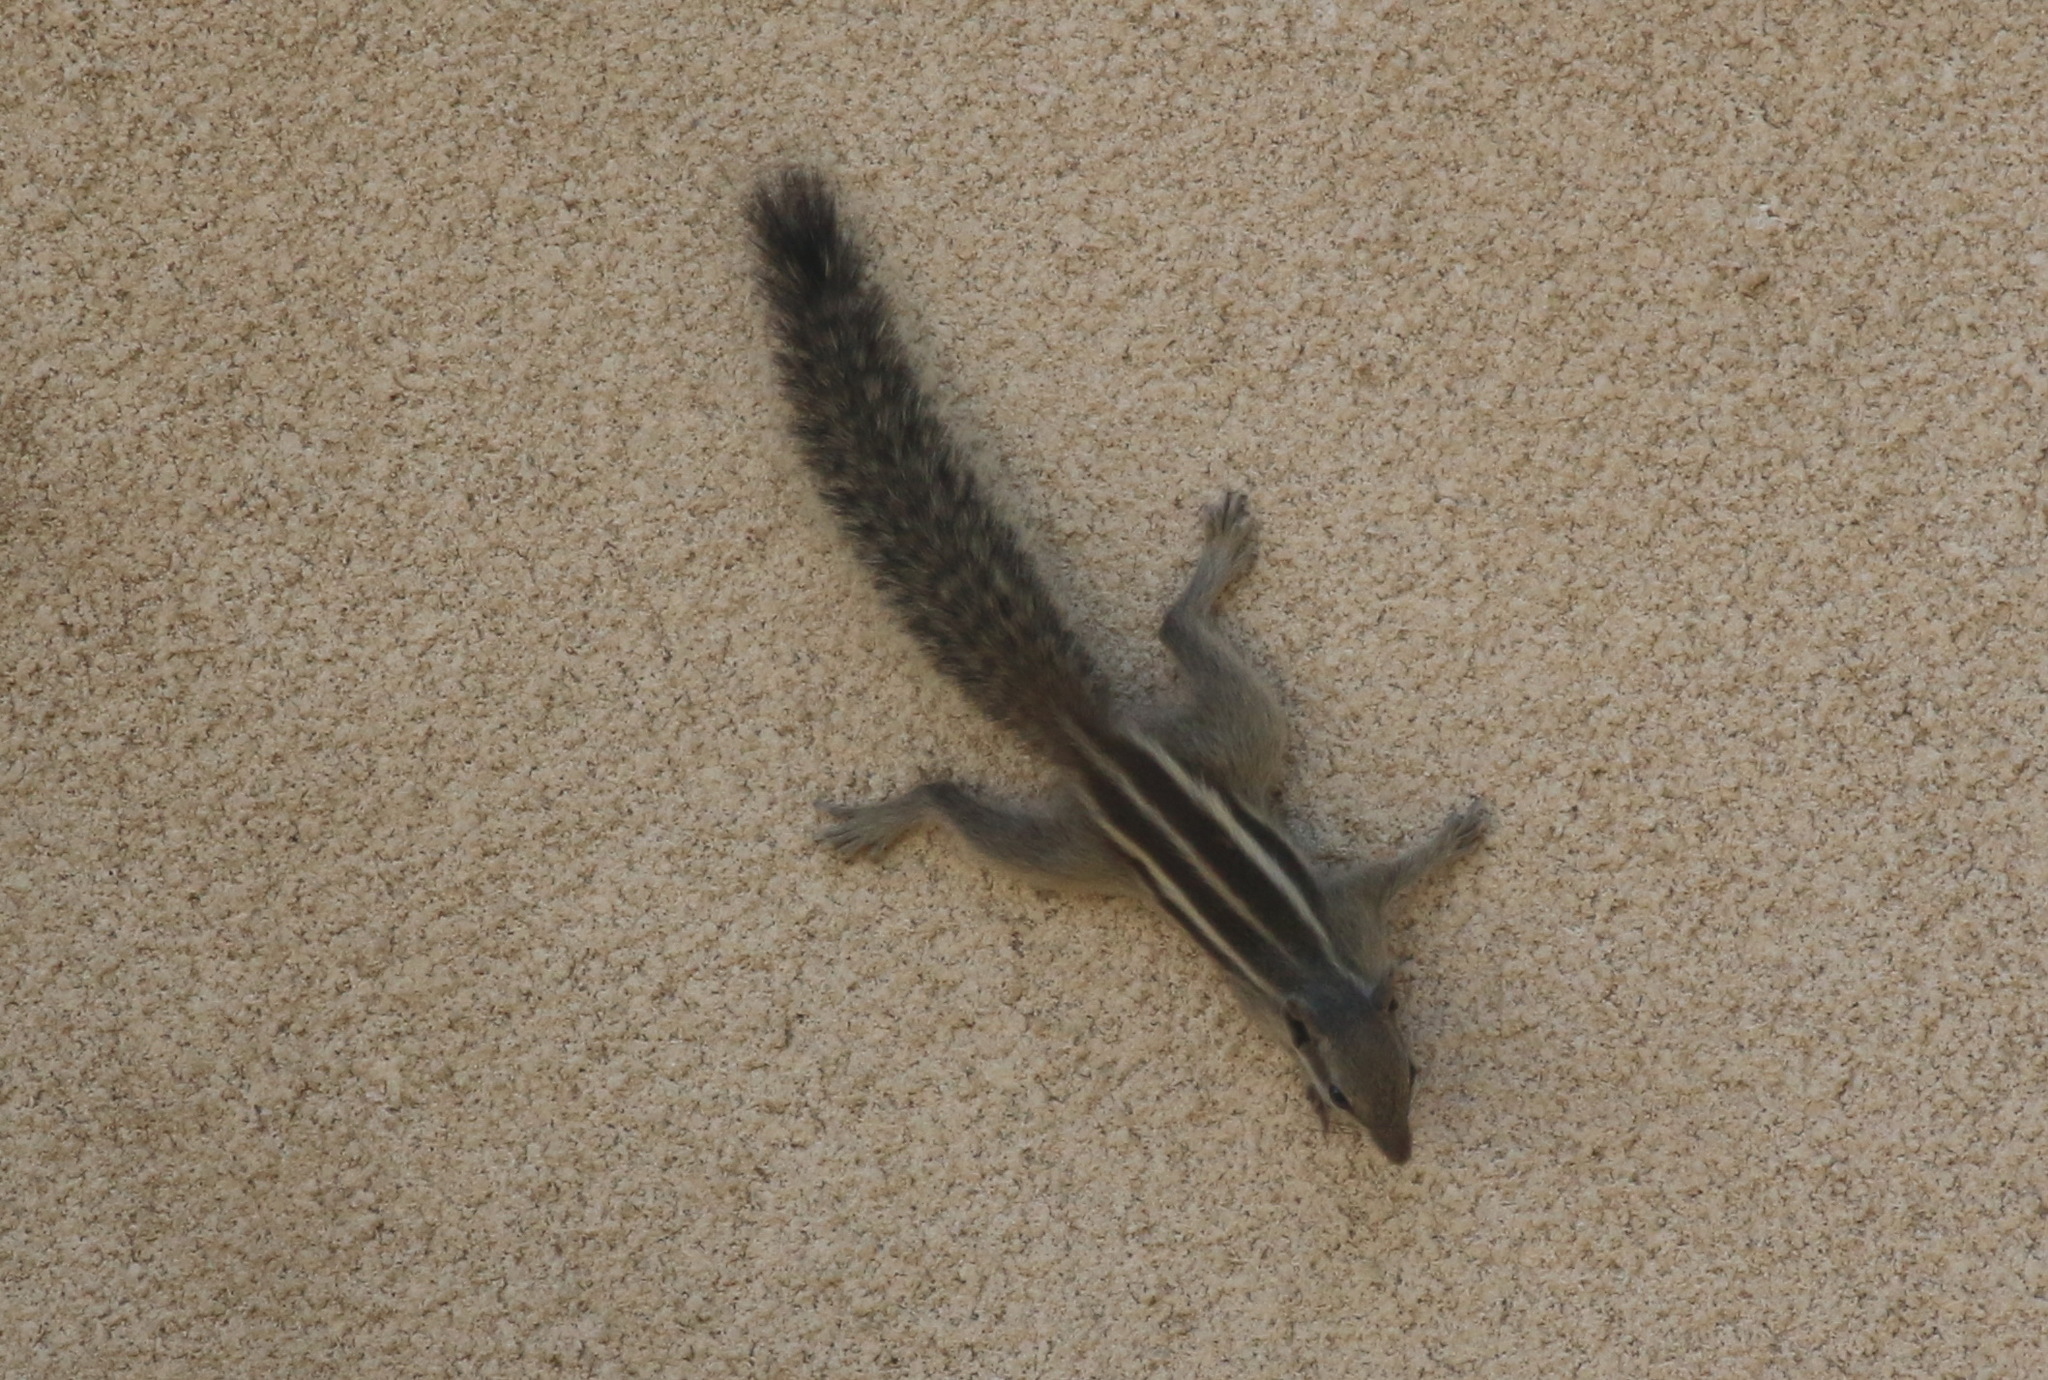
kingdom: Animalia
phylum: Chordata
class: Mammalia
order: Rodentia
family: Sciuridae
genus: Funambulus
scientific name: Funambulus pennantii
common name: Northern palm squirrel
